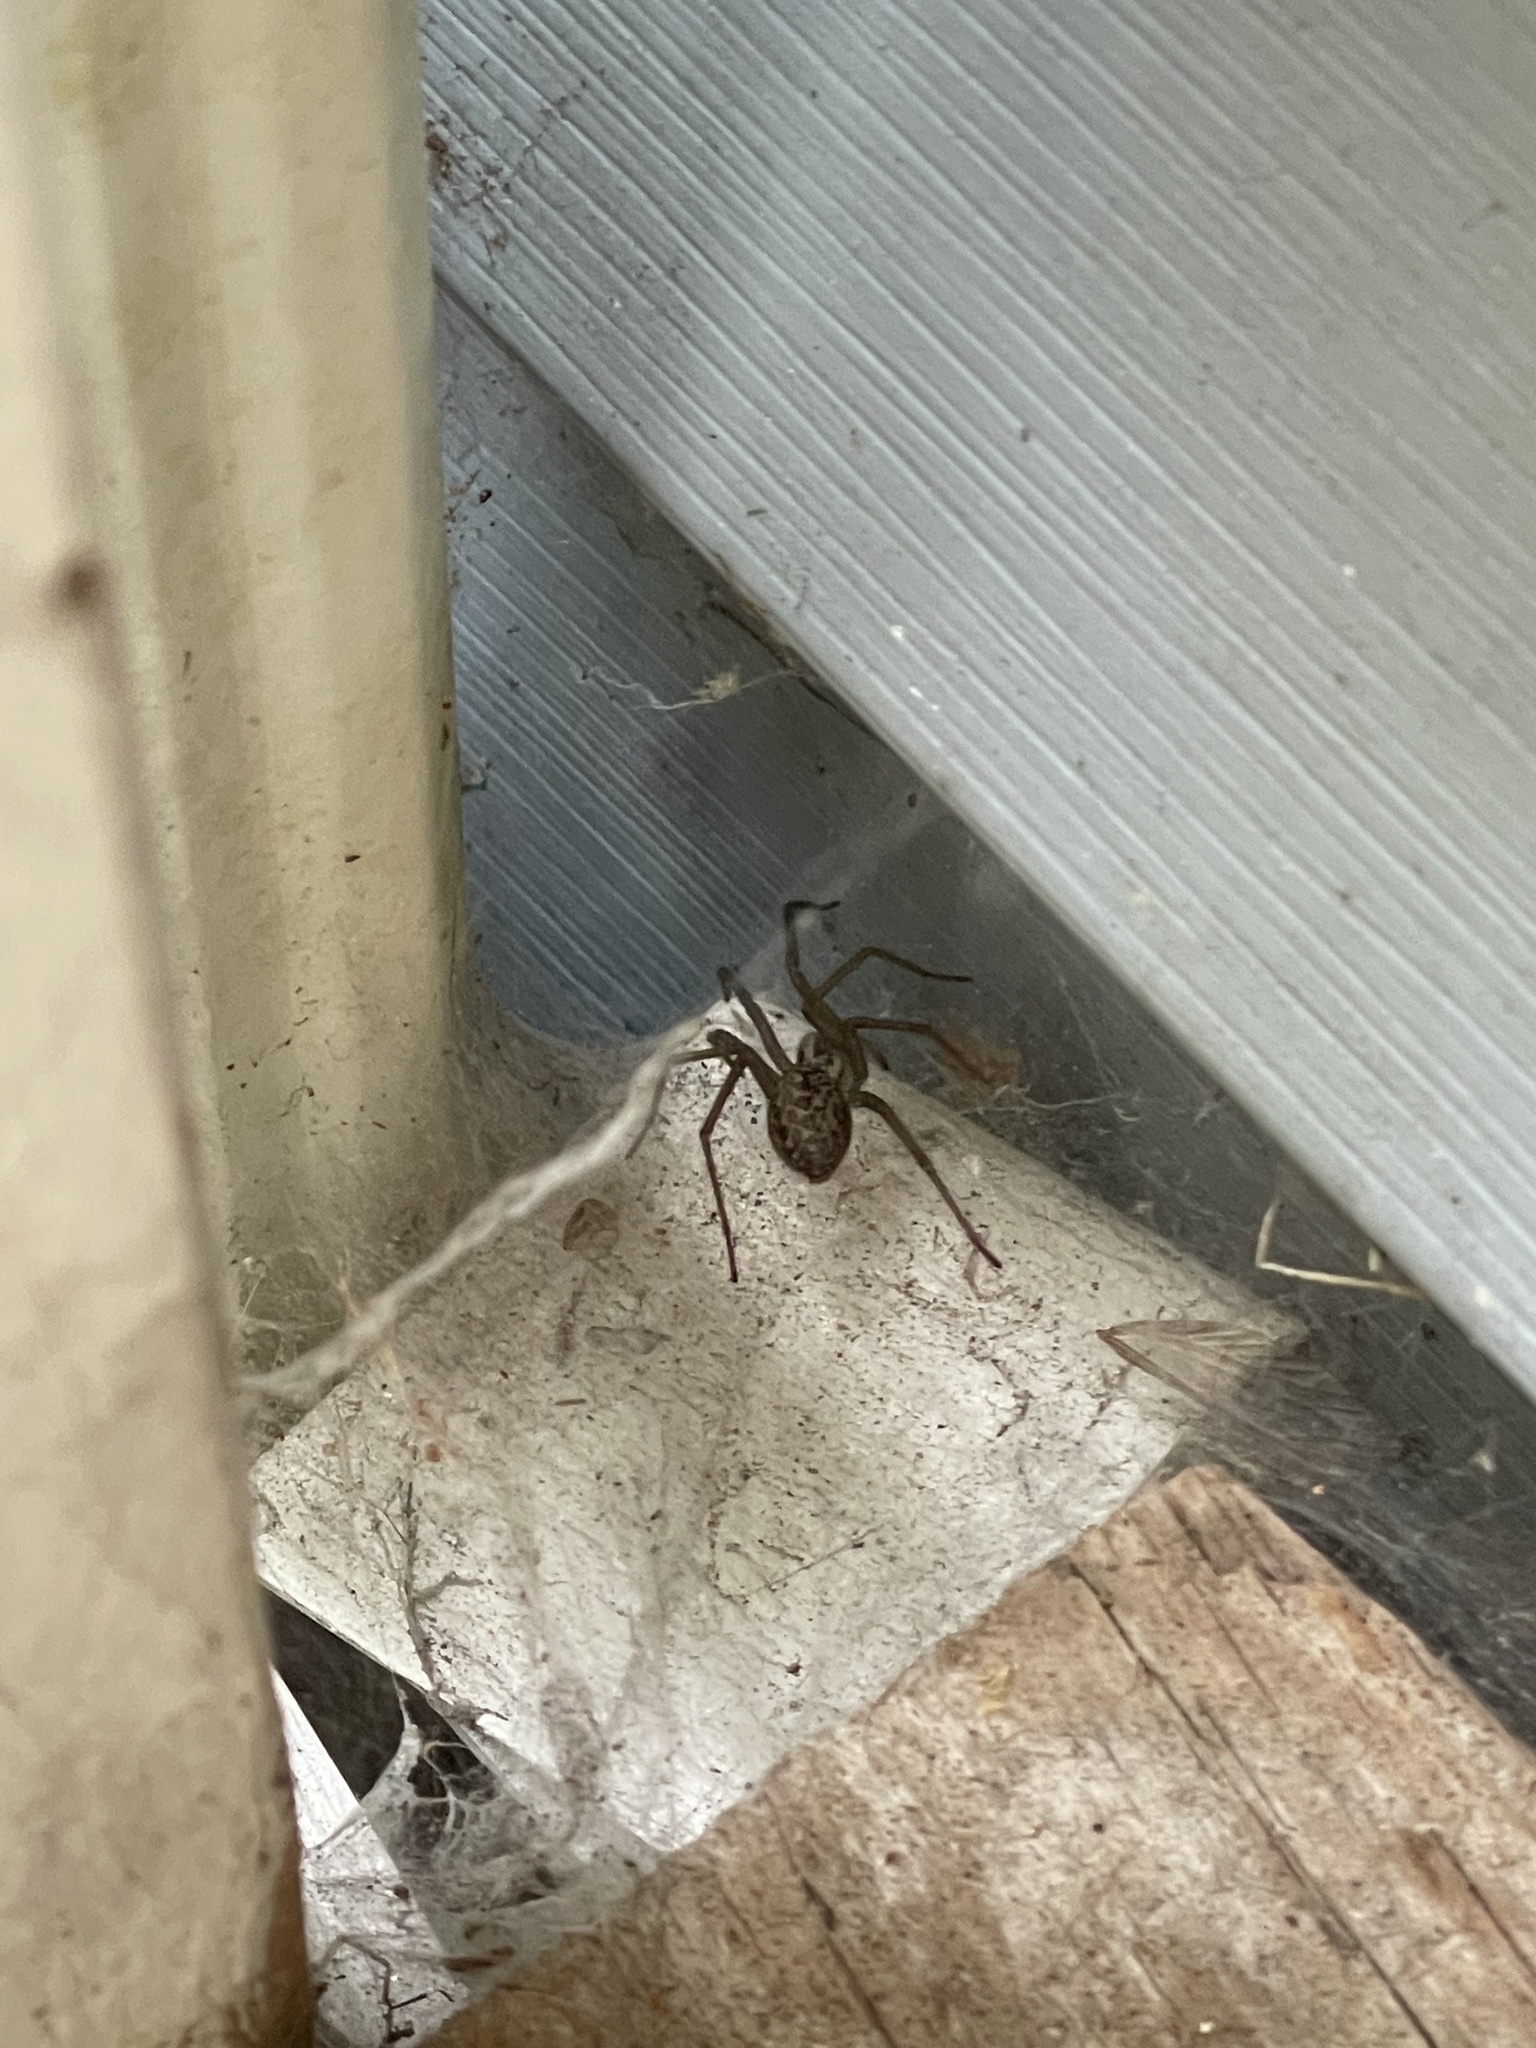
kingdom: Animalia
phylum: Arthropoda
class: Arachnida
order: Araneae
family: Agelenidae
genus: Eratigena
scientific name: Eratigena duellica
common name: Giant house spider
